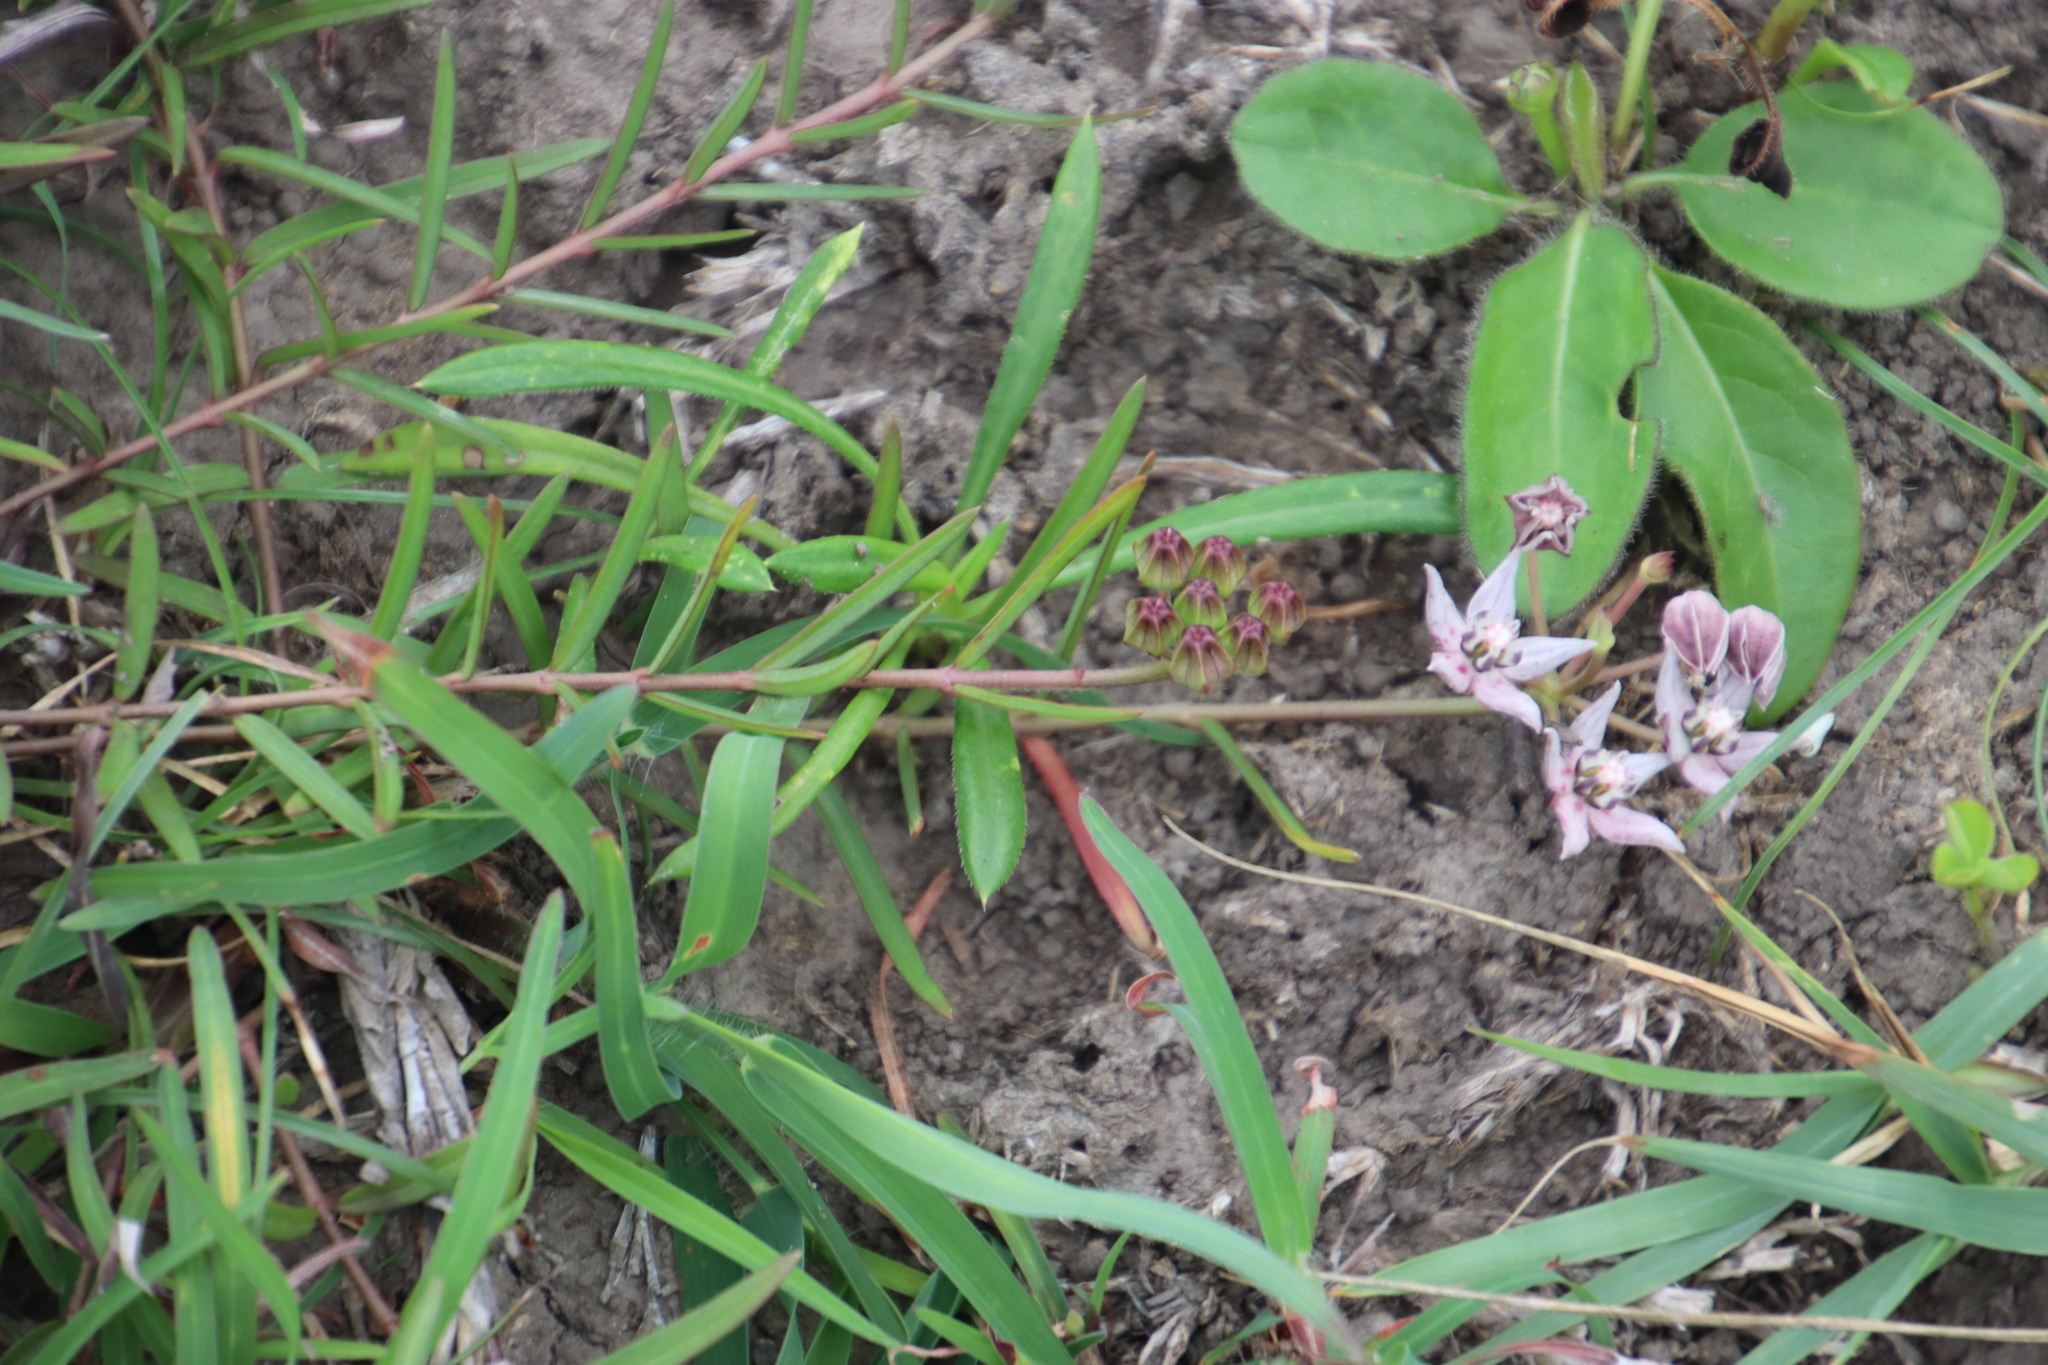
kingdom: Plantae
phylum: Tracheophyta
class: Magnoliopsida
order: Gentianales
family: Apocynaceae
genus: Asclepias
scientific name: Asclepias brevicuspis
